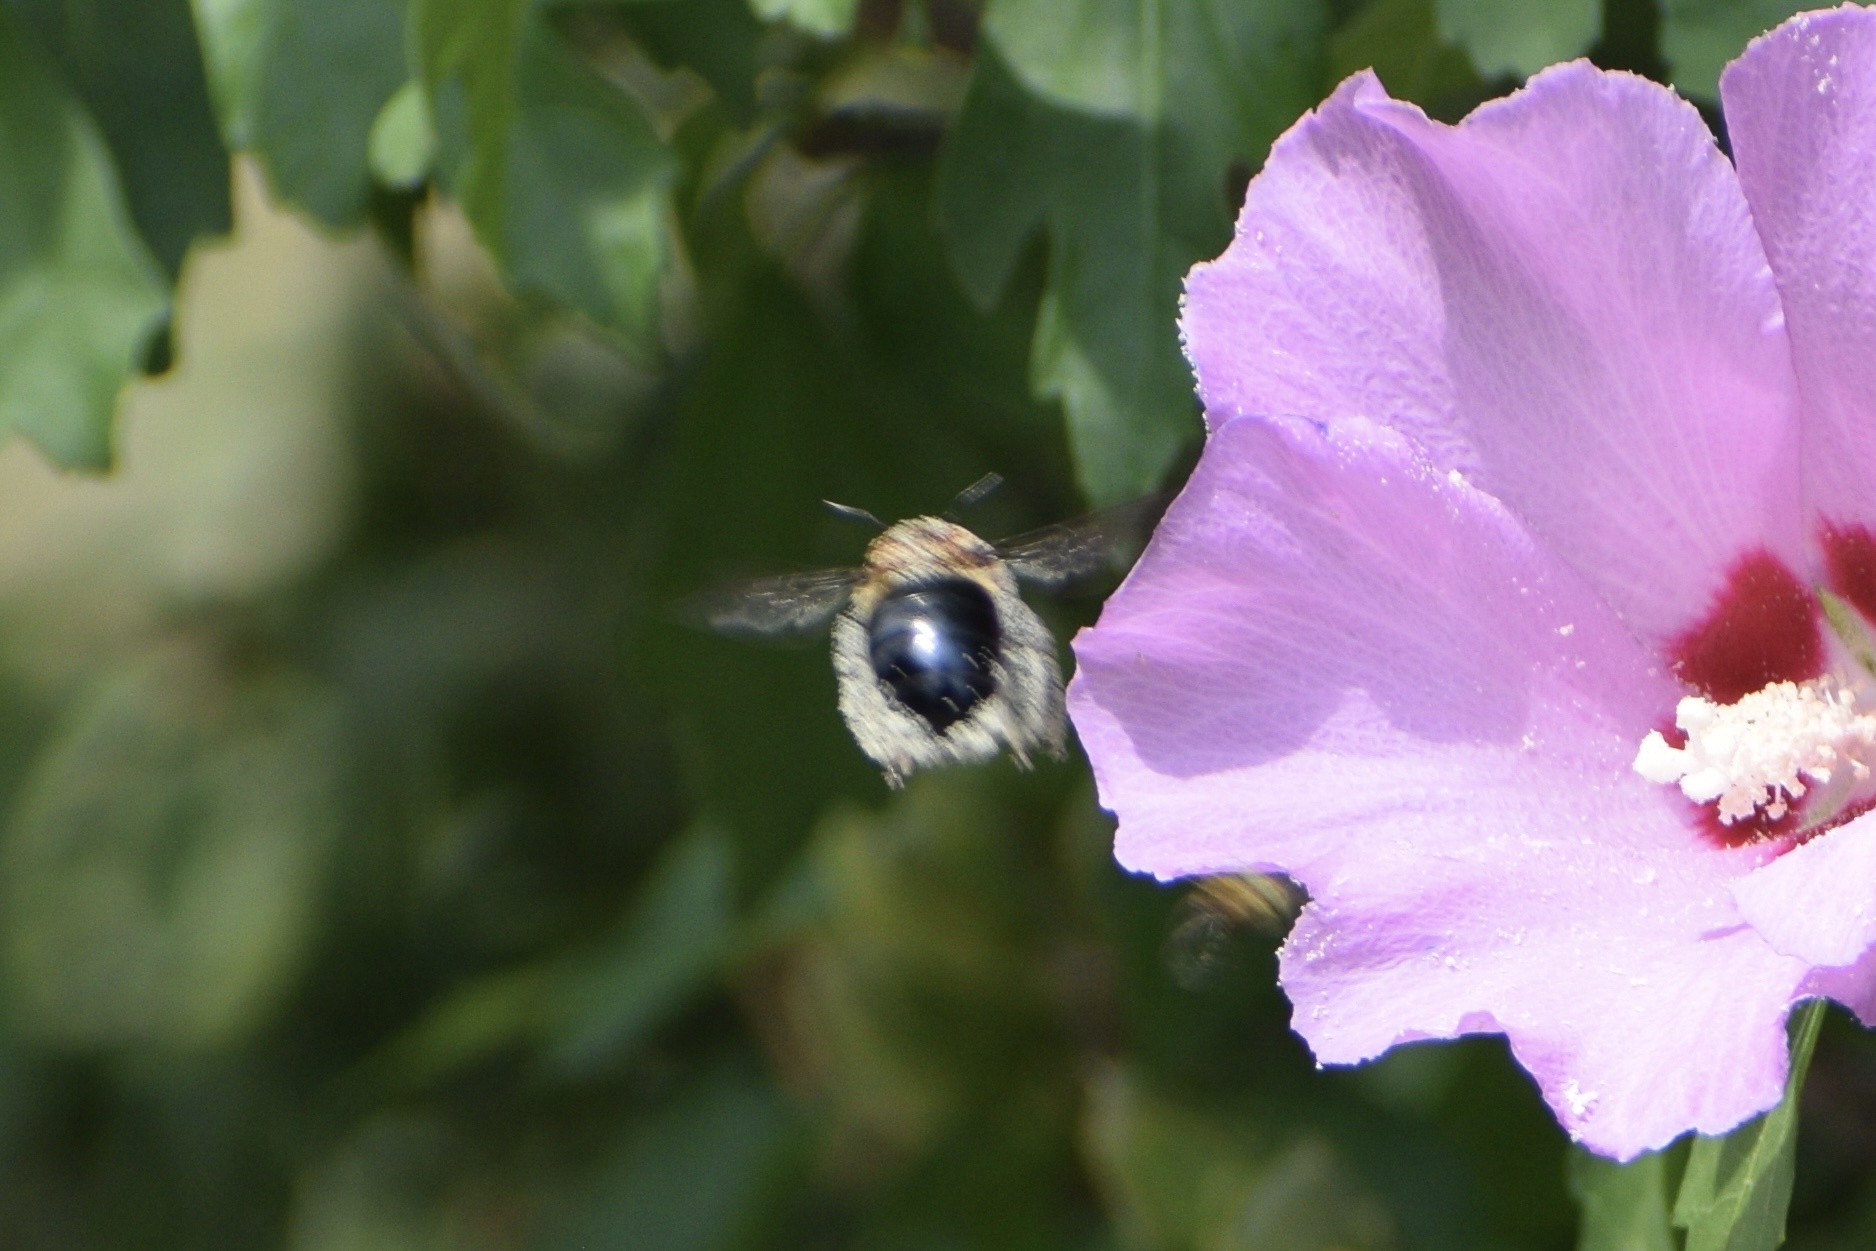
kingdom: Animalia
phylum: Arthropoda
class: Insecta
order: Hymenoptera
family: Apidae
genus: Xylocopa
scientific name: Xylocopa virginica
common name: Carpenter bee
